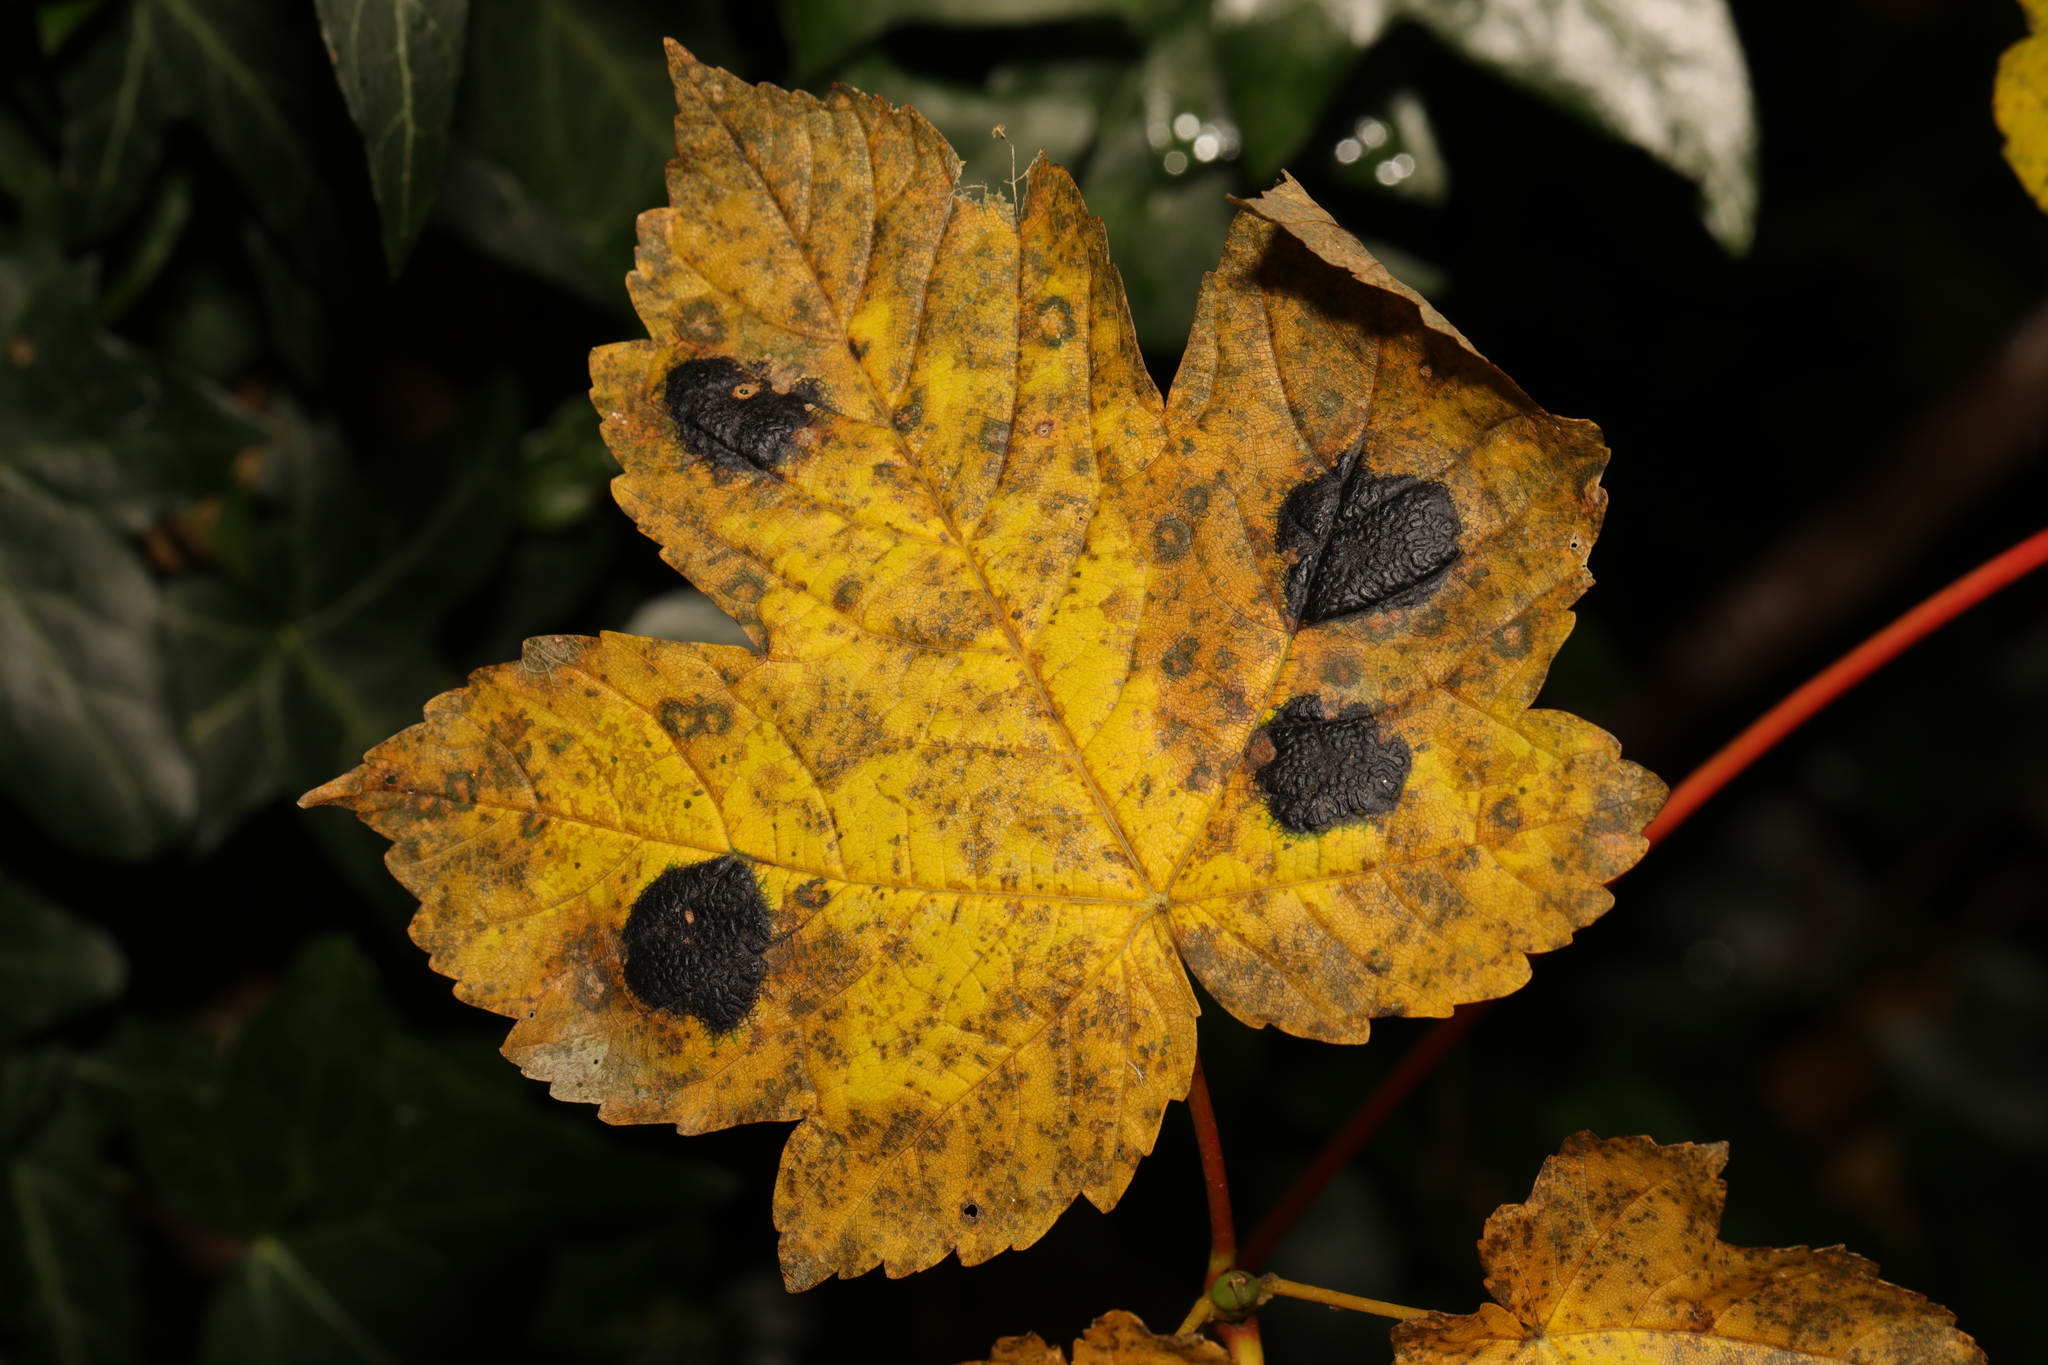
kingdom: Fungi
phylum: Ascomycota
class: Leotiomycetes
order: Rhytismatales
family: Rhytismataceae
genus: Rhytisma
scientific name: Rhytisma acerinum
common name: European tar spot
